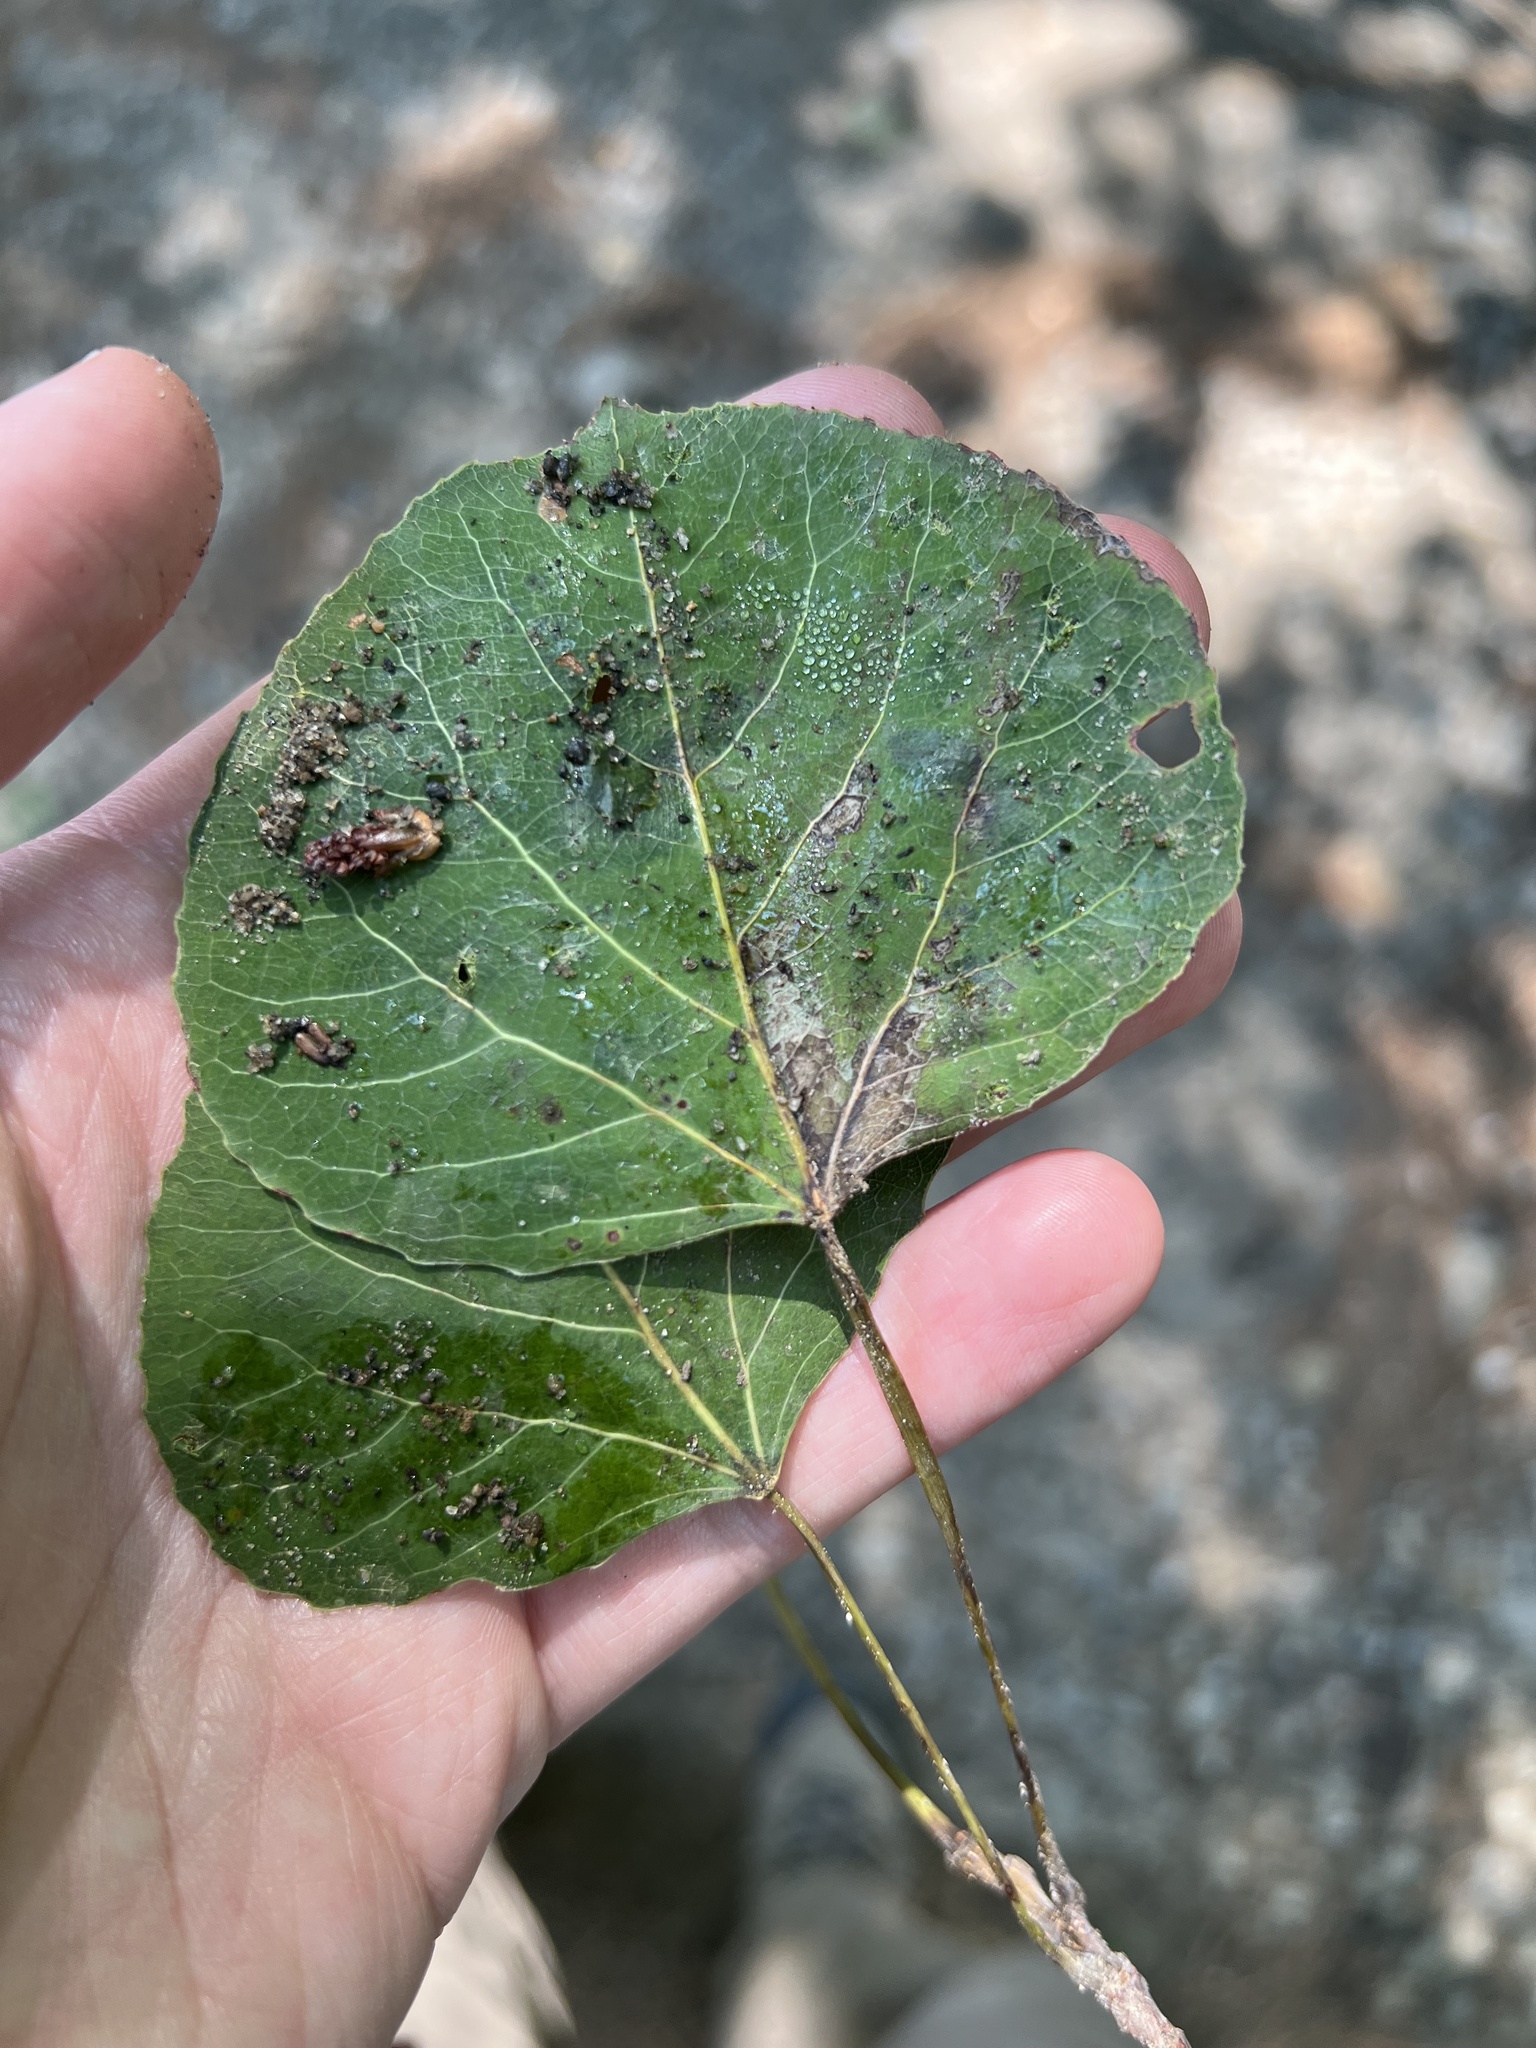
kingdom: Plantae
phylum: Tracheophyta
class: Magnoliopsida
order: Malpighiales
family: Salicaceae
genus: Populus
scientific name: Populus tremuloides
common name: Quaking aspen
